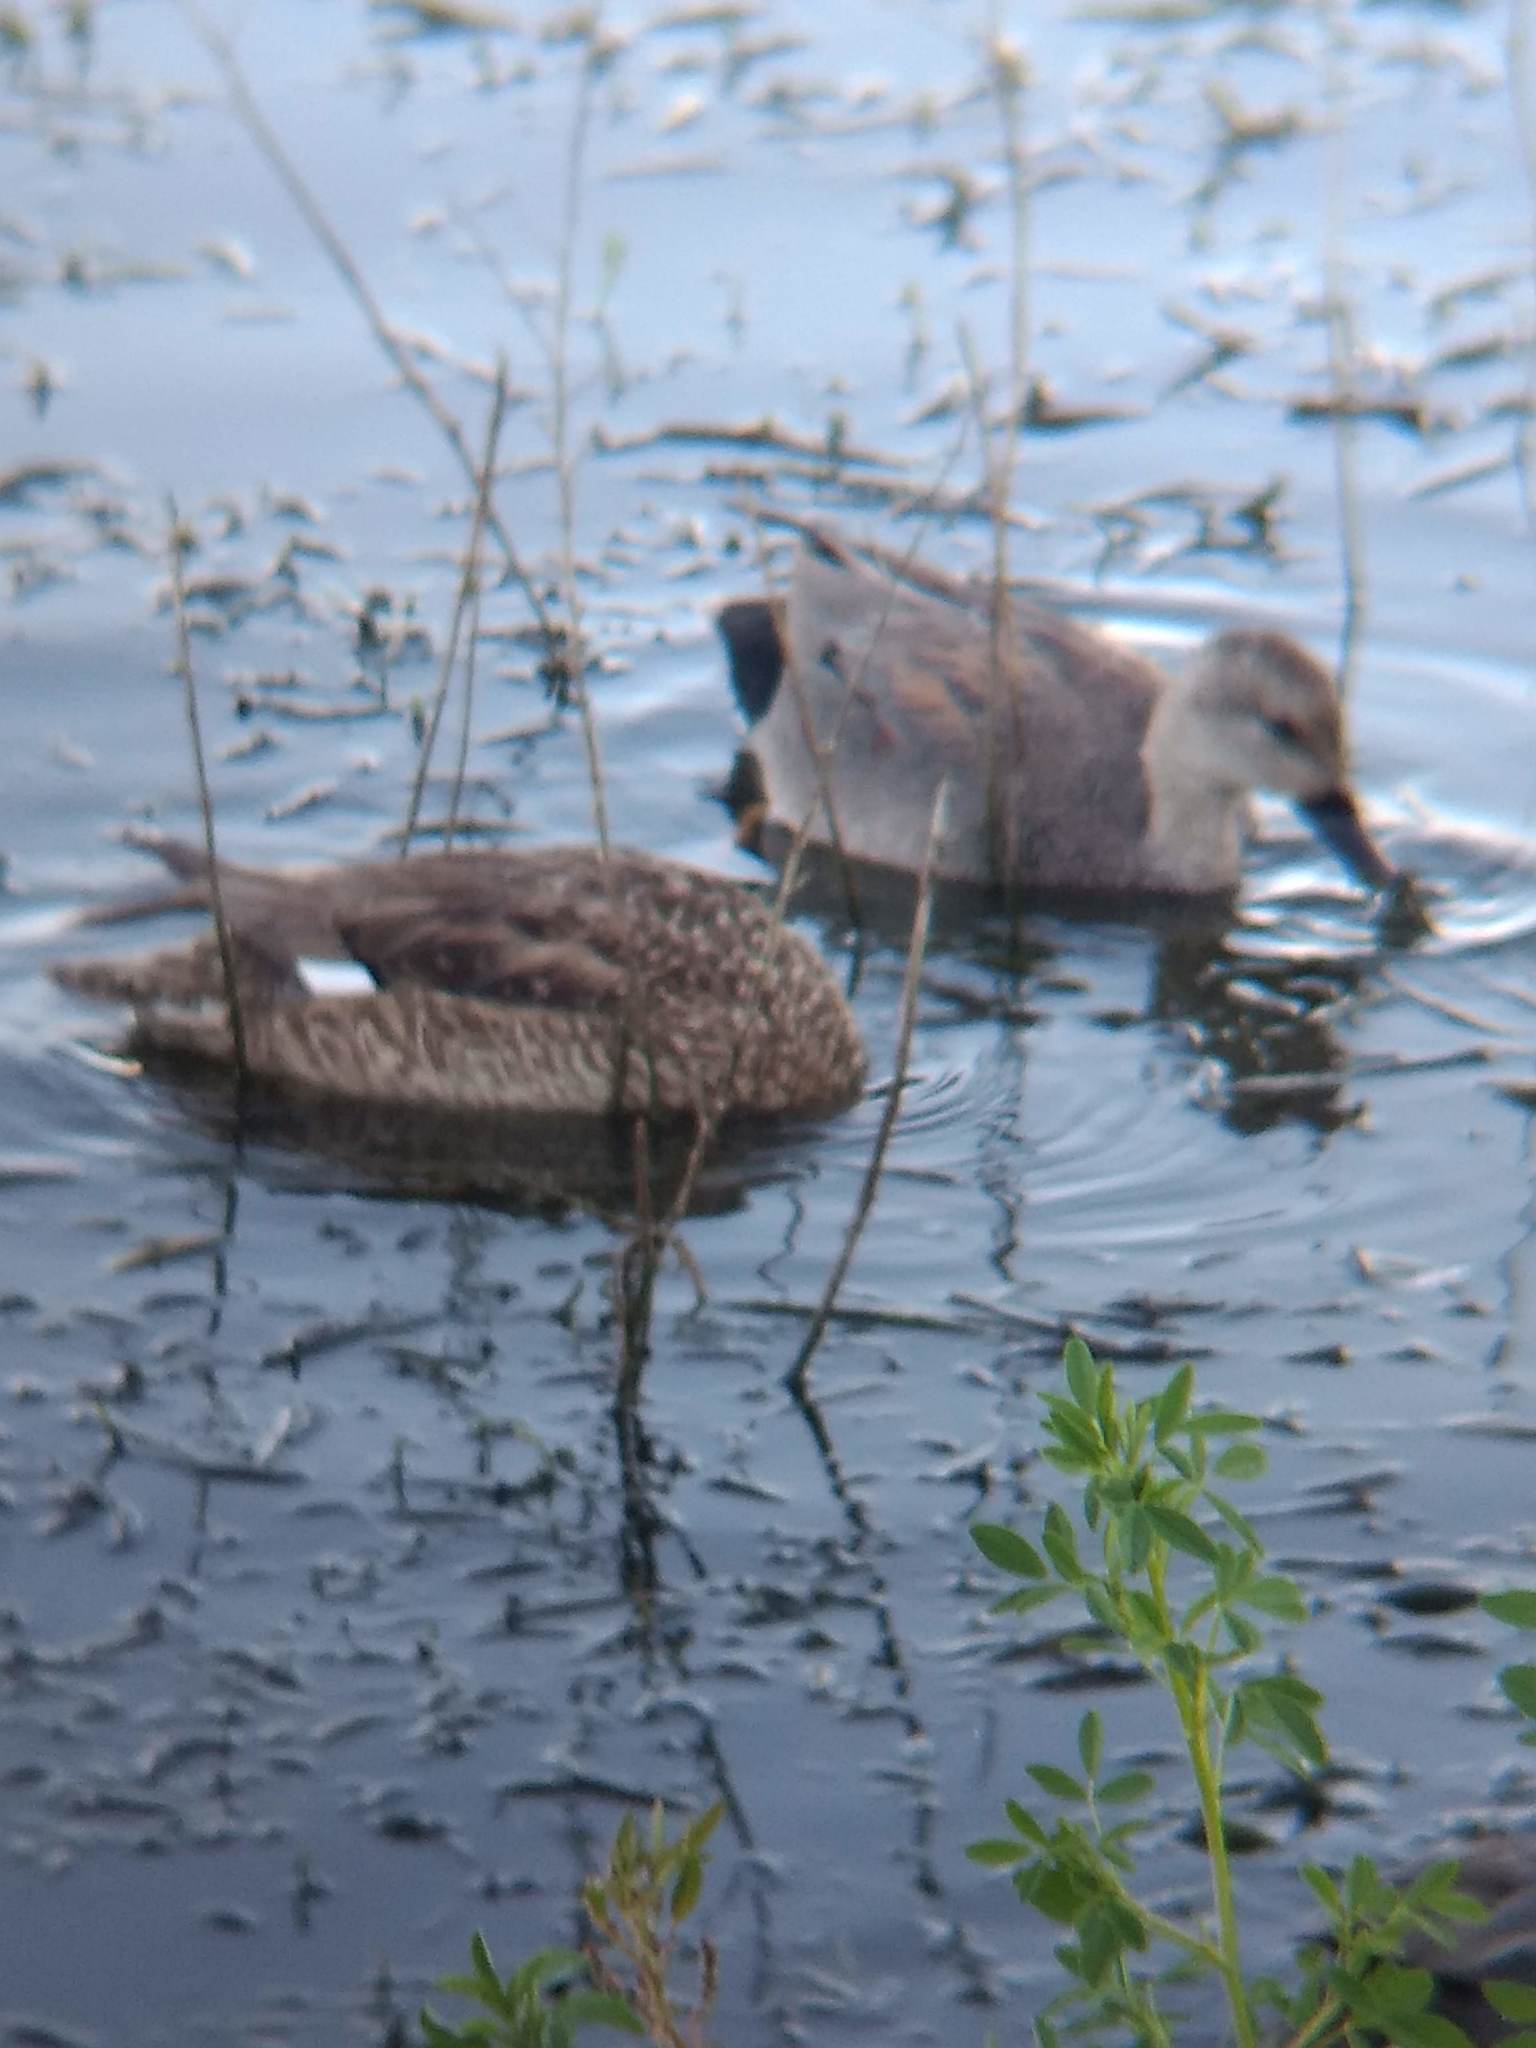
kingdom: Animalia
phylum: Chordata
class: Aves
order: Anseriformes
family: Anatidae
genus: Mareca
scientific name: Mareca strepera
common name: Gadwall
